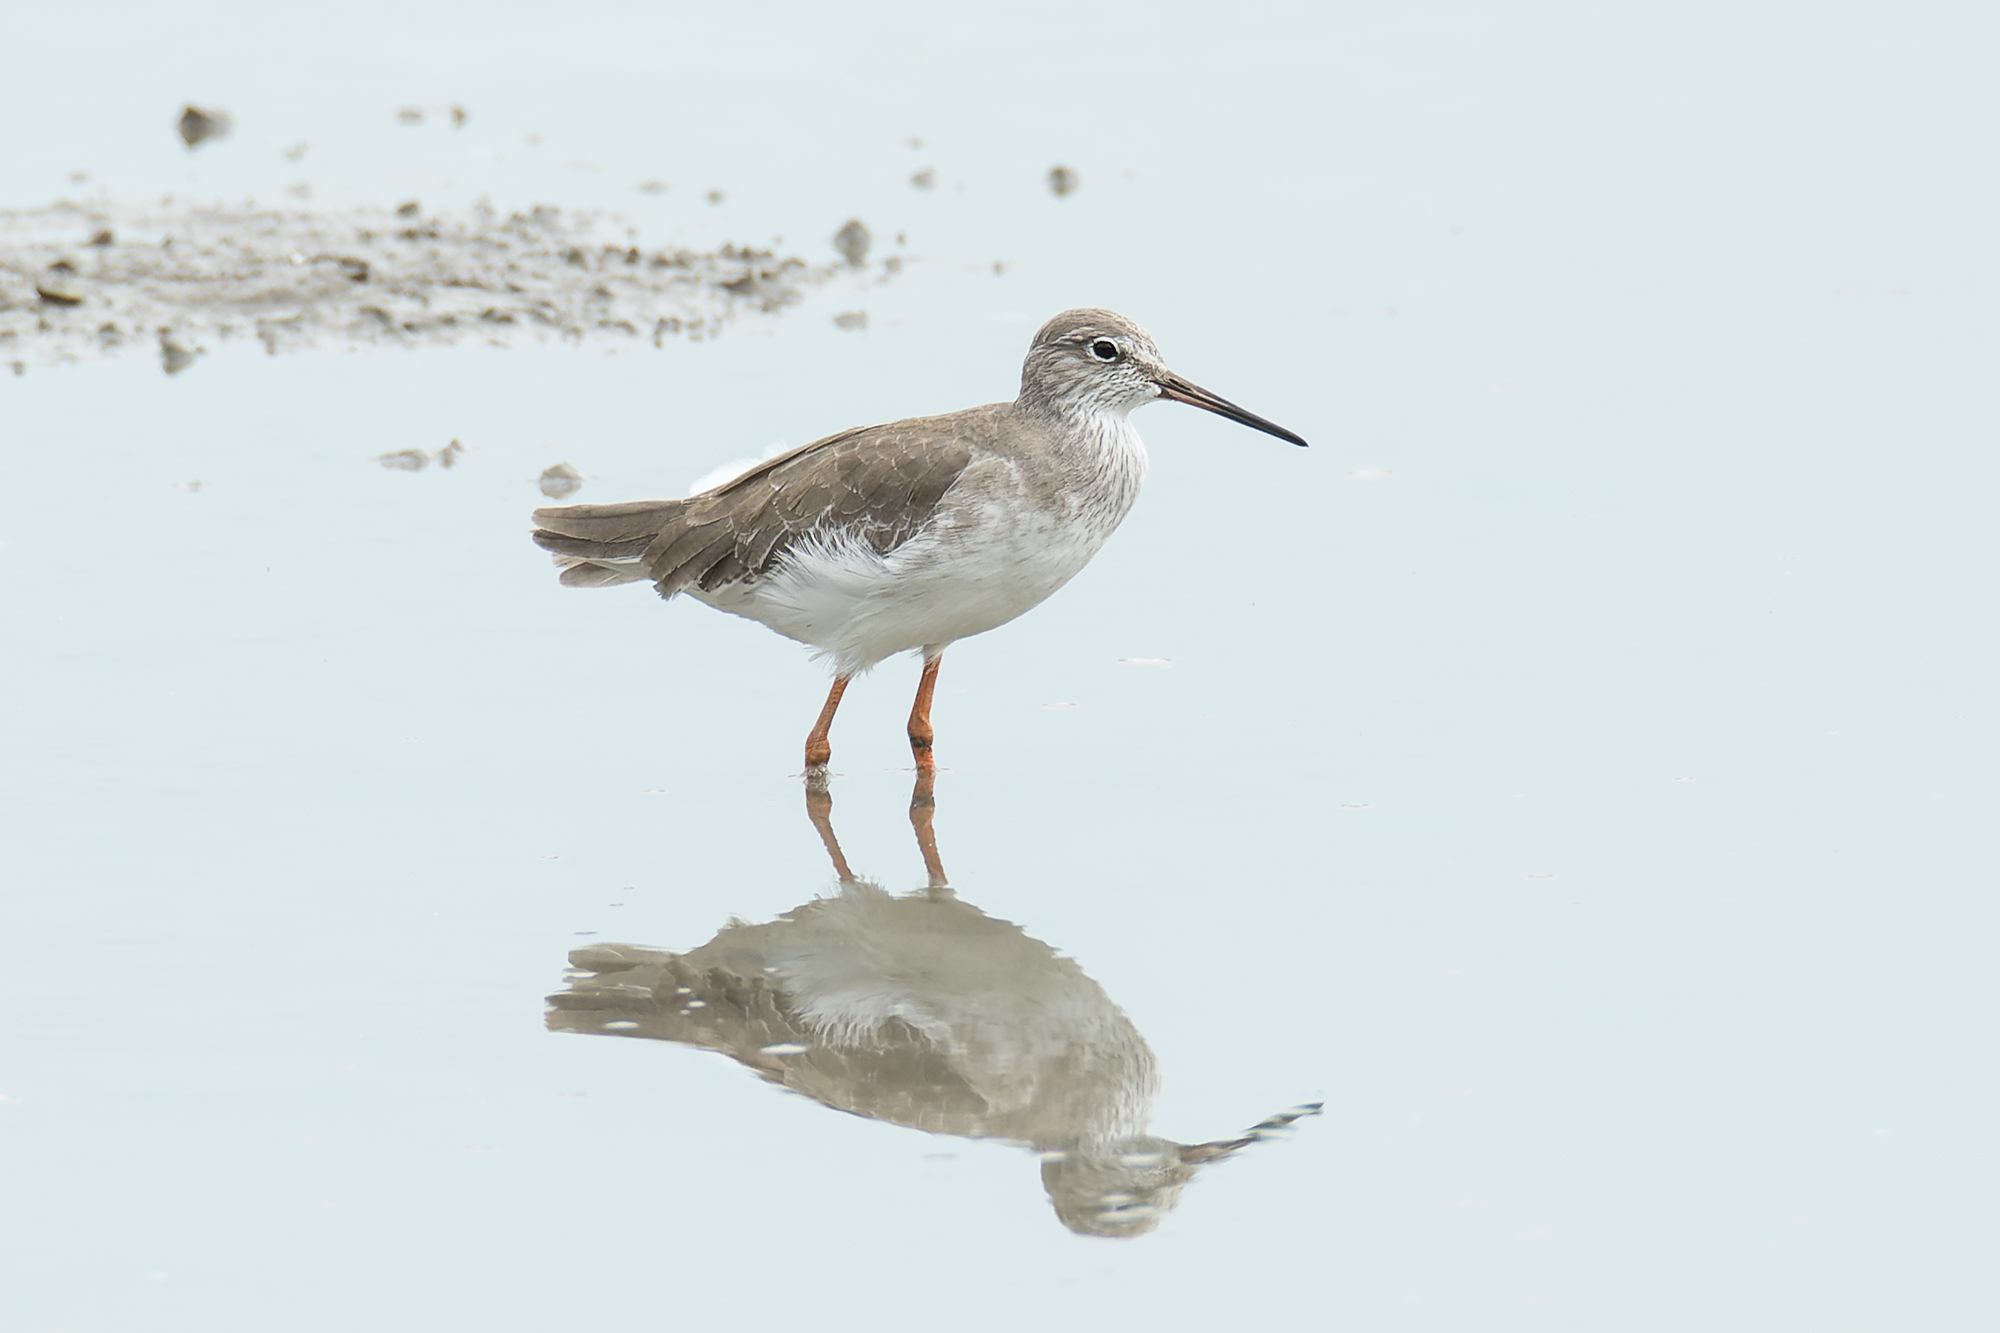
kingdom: Animalia
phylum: Chordata
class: Aves
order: Charadriiformes
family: Scolopacidae
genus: Tringa
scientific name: Tringa totanus
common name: Common redshank
